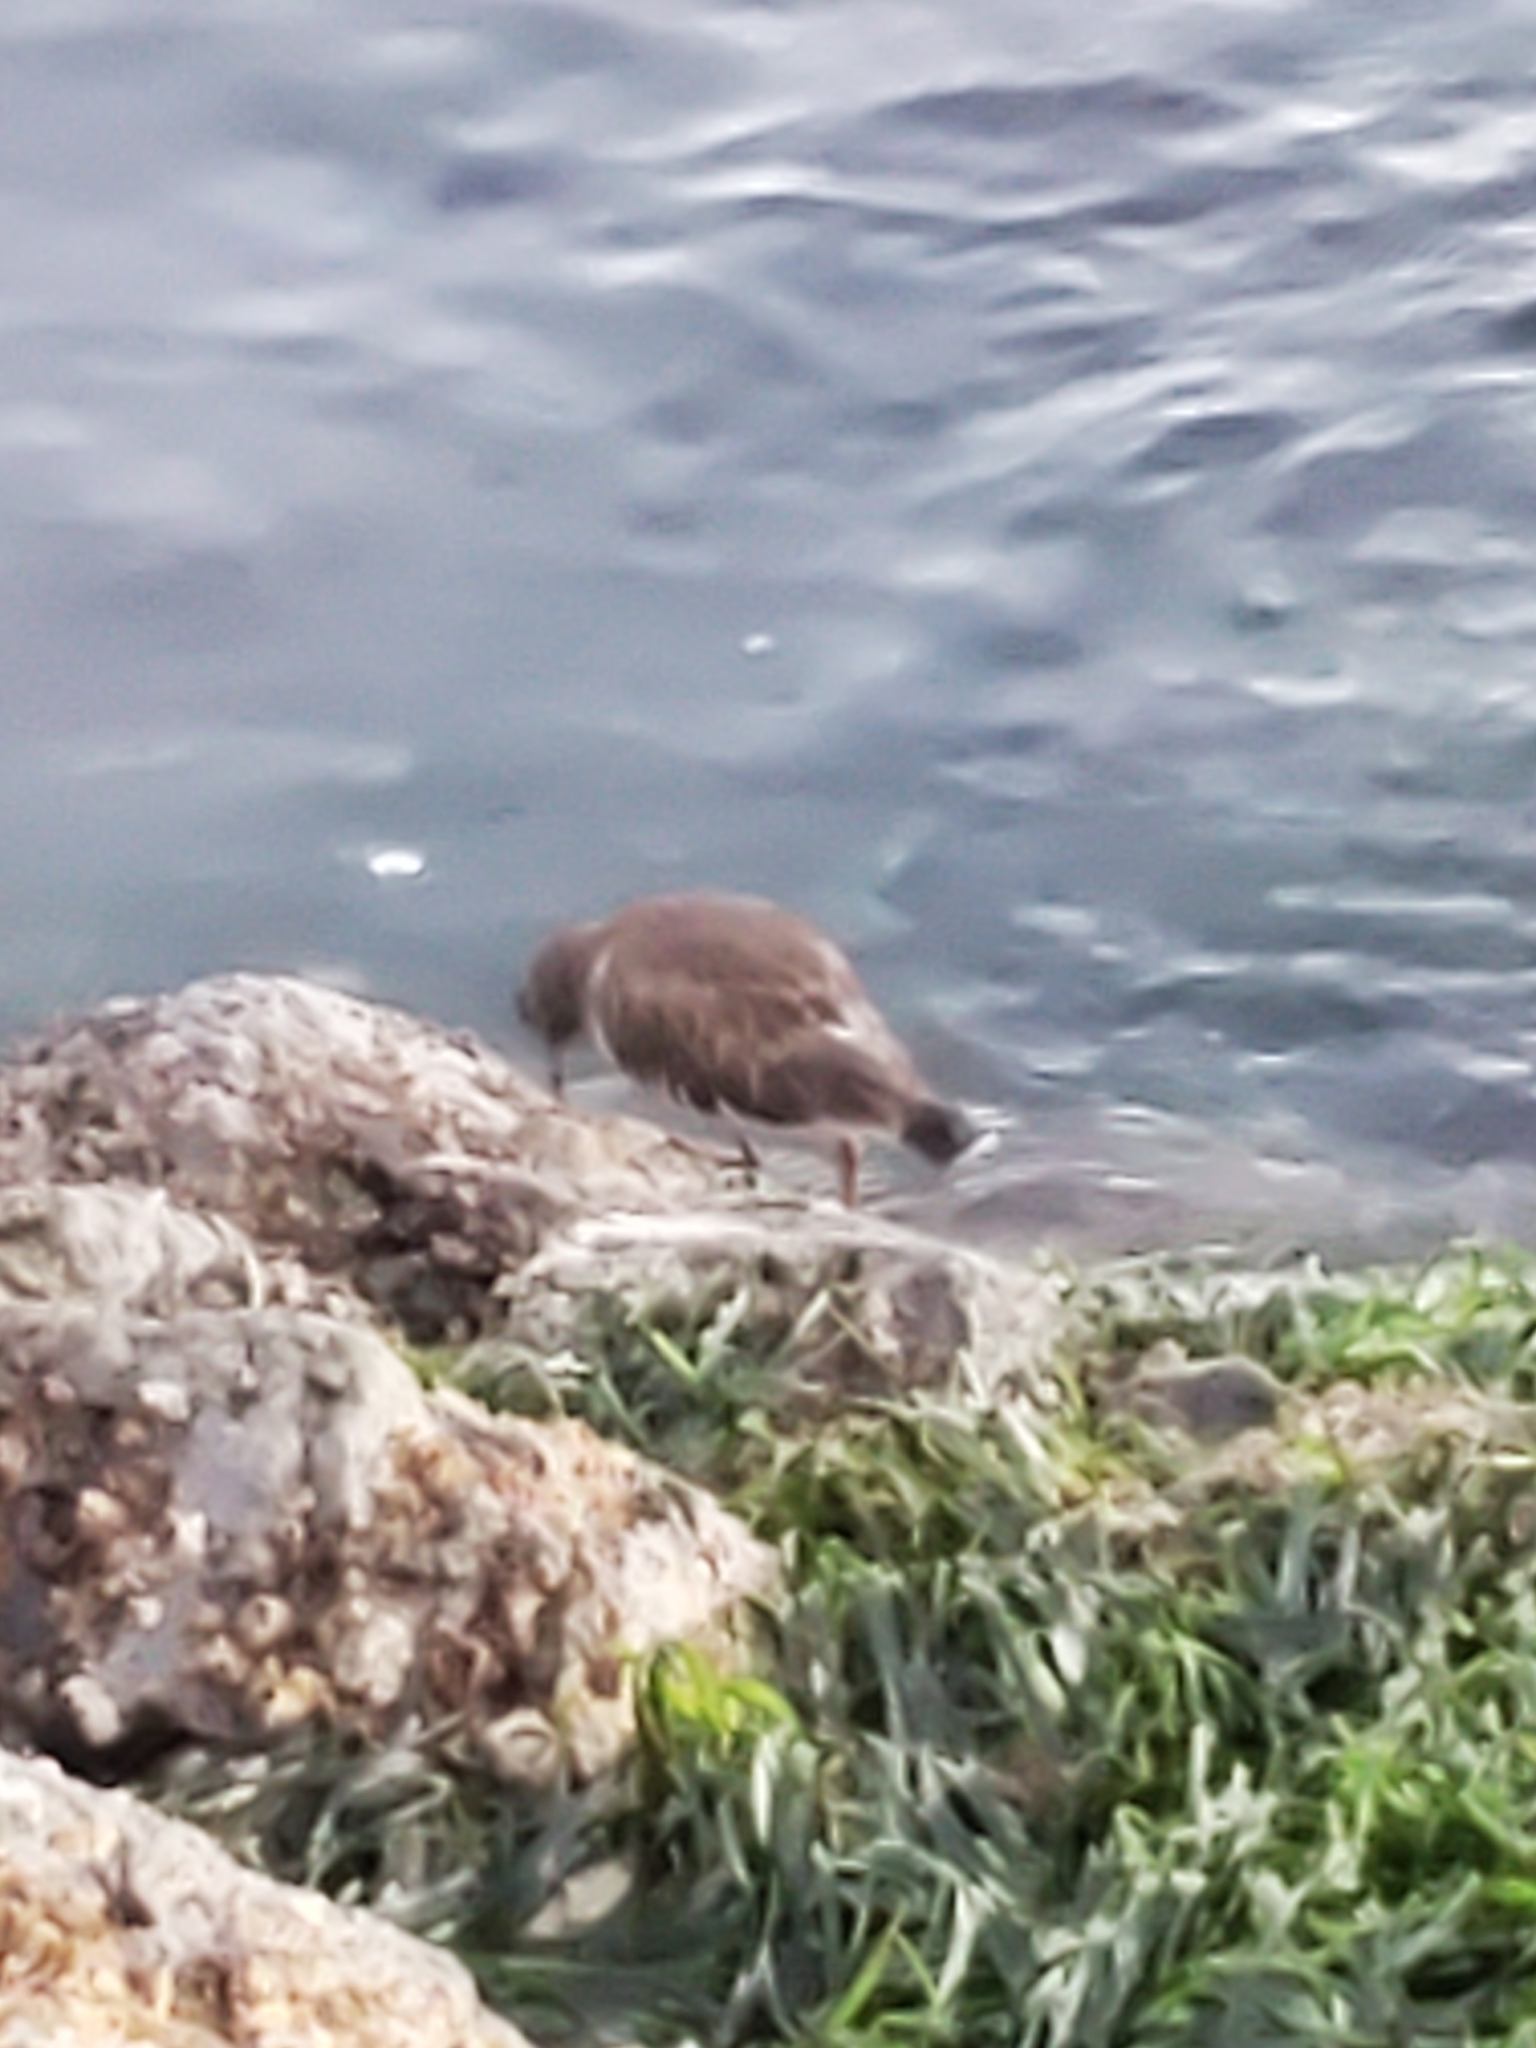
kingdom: Animalia
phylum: Chordata
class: Aves
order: Charadriiformes
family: Scolopacidae
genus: Arenaria
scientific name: Arenaria melanocephala
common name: Black turnstone
